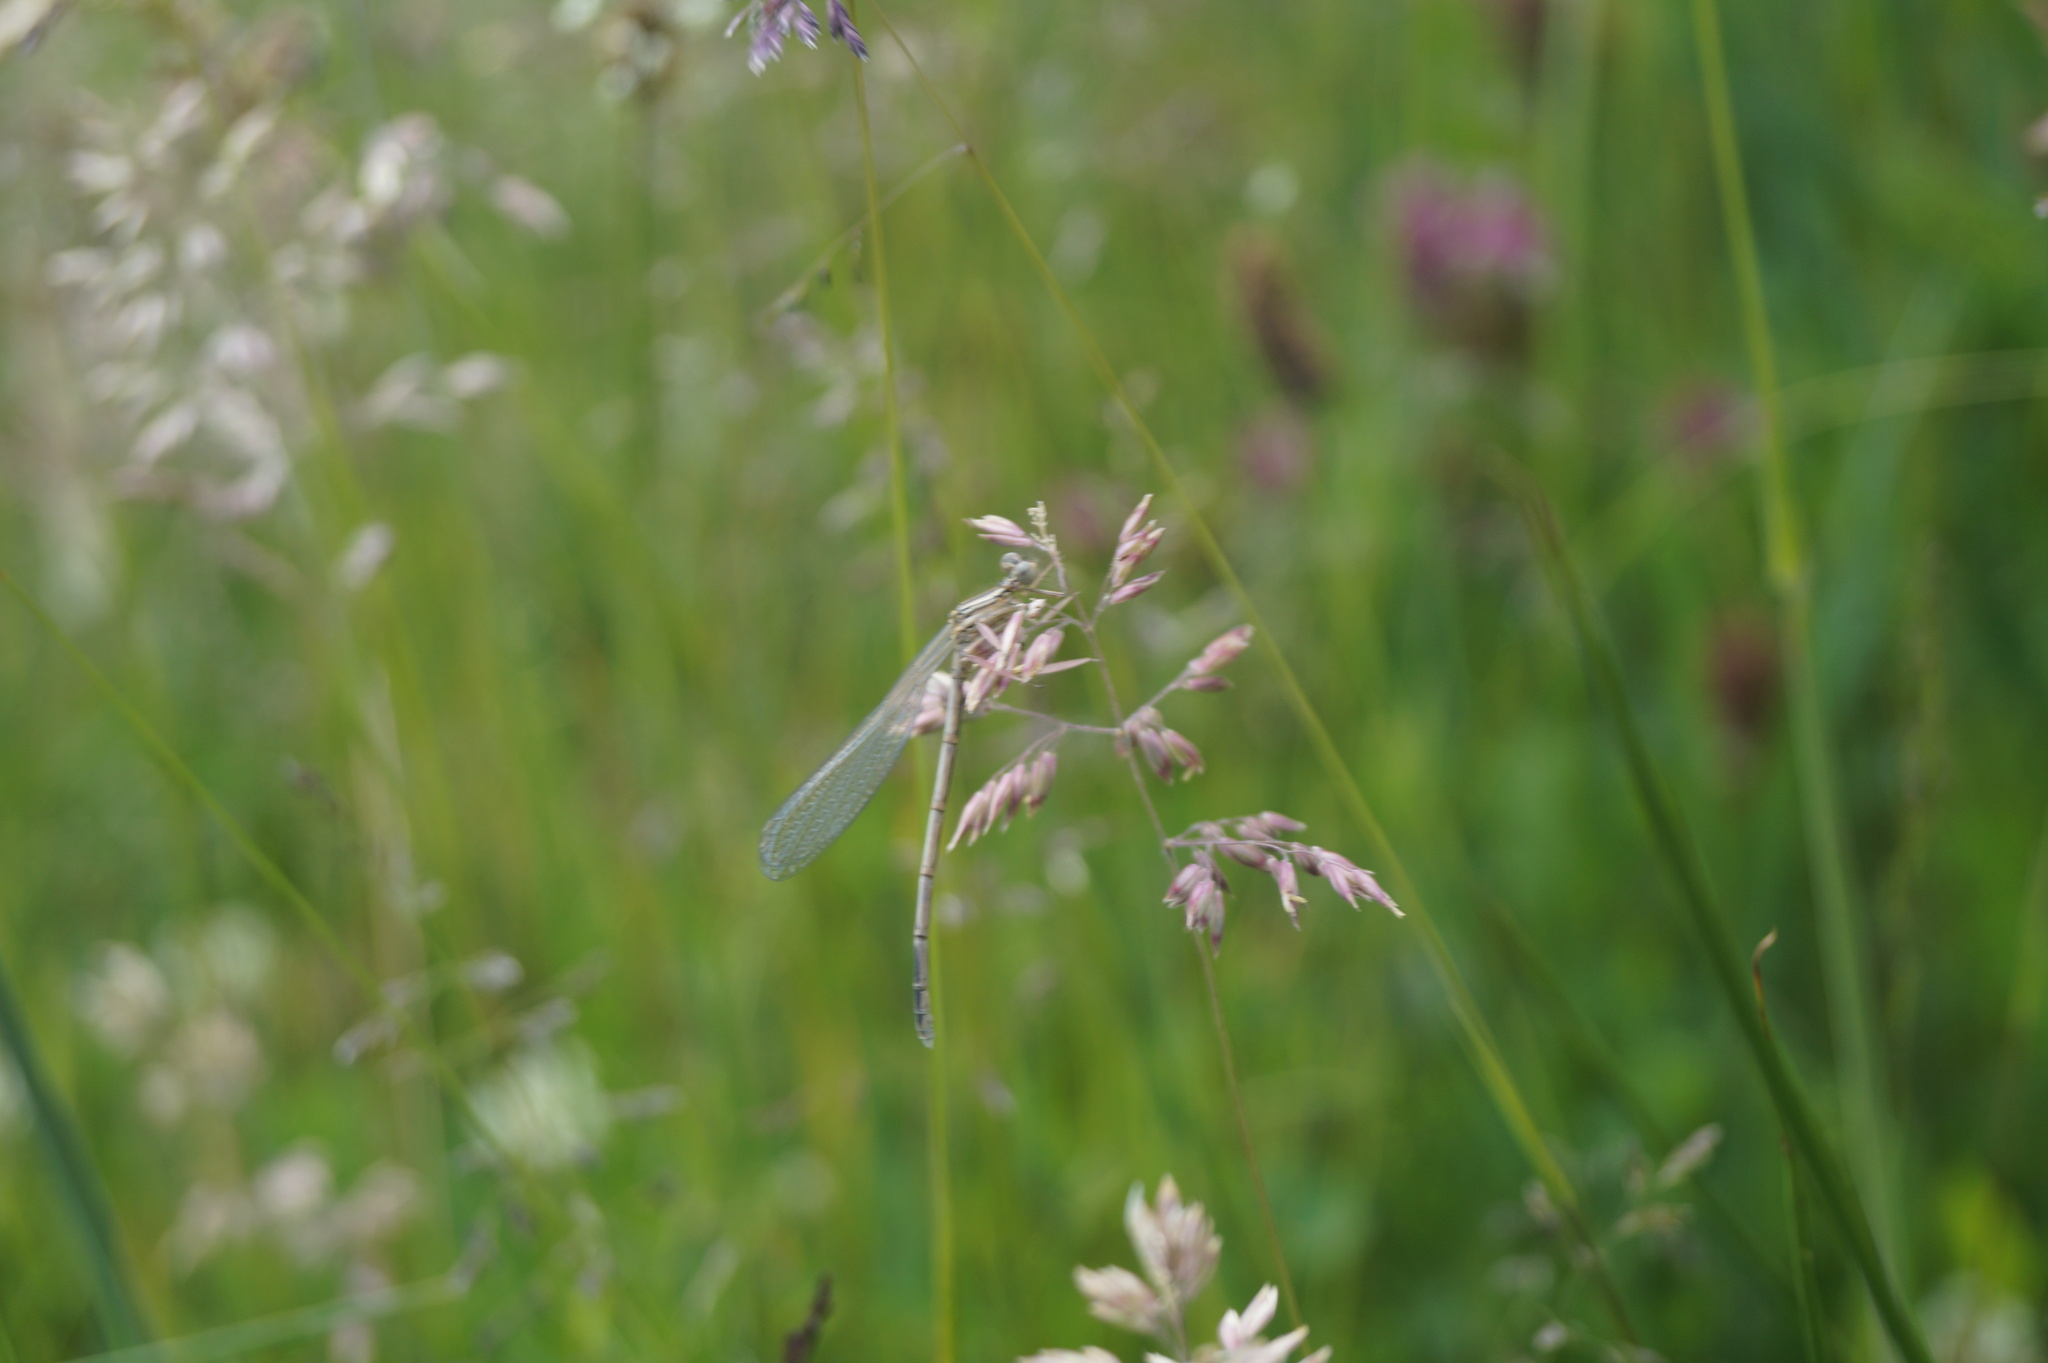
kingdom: Animalia
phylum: Arthropoda
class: Insecta
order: Odonata
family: Platycnemididae
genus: Platycnemis
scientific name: Platycnemis pennipes
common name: White-legged damselfly
